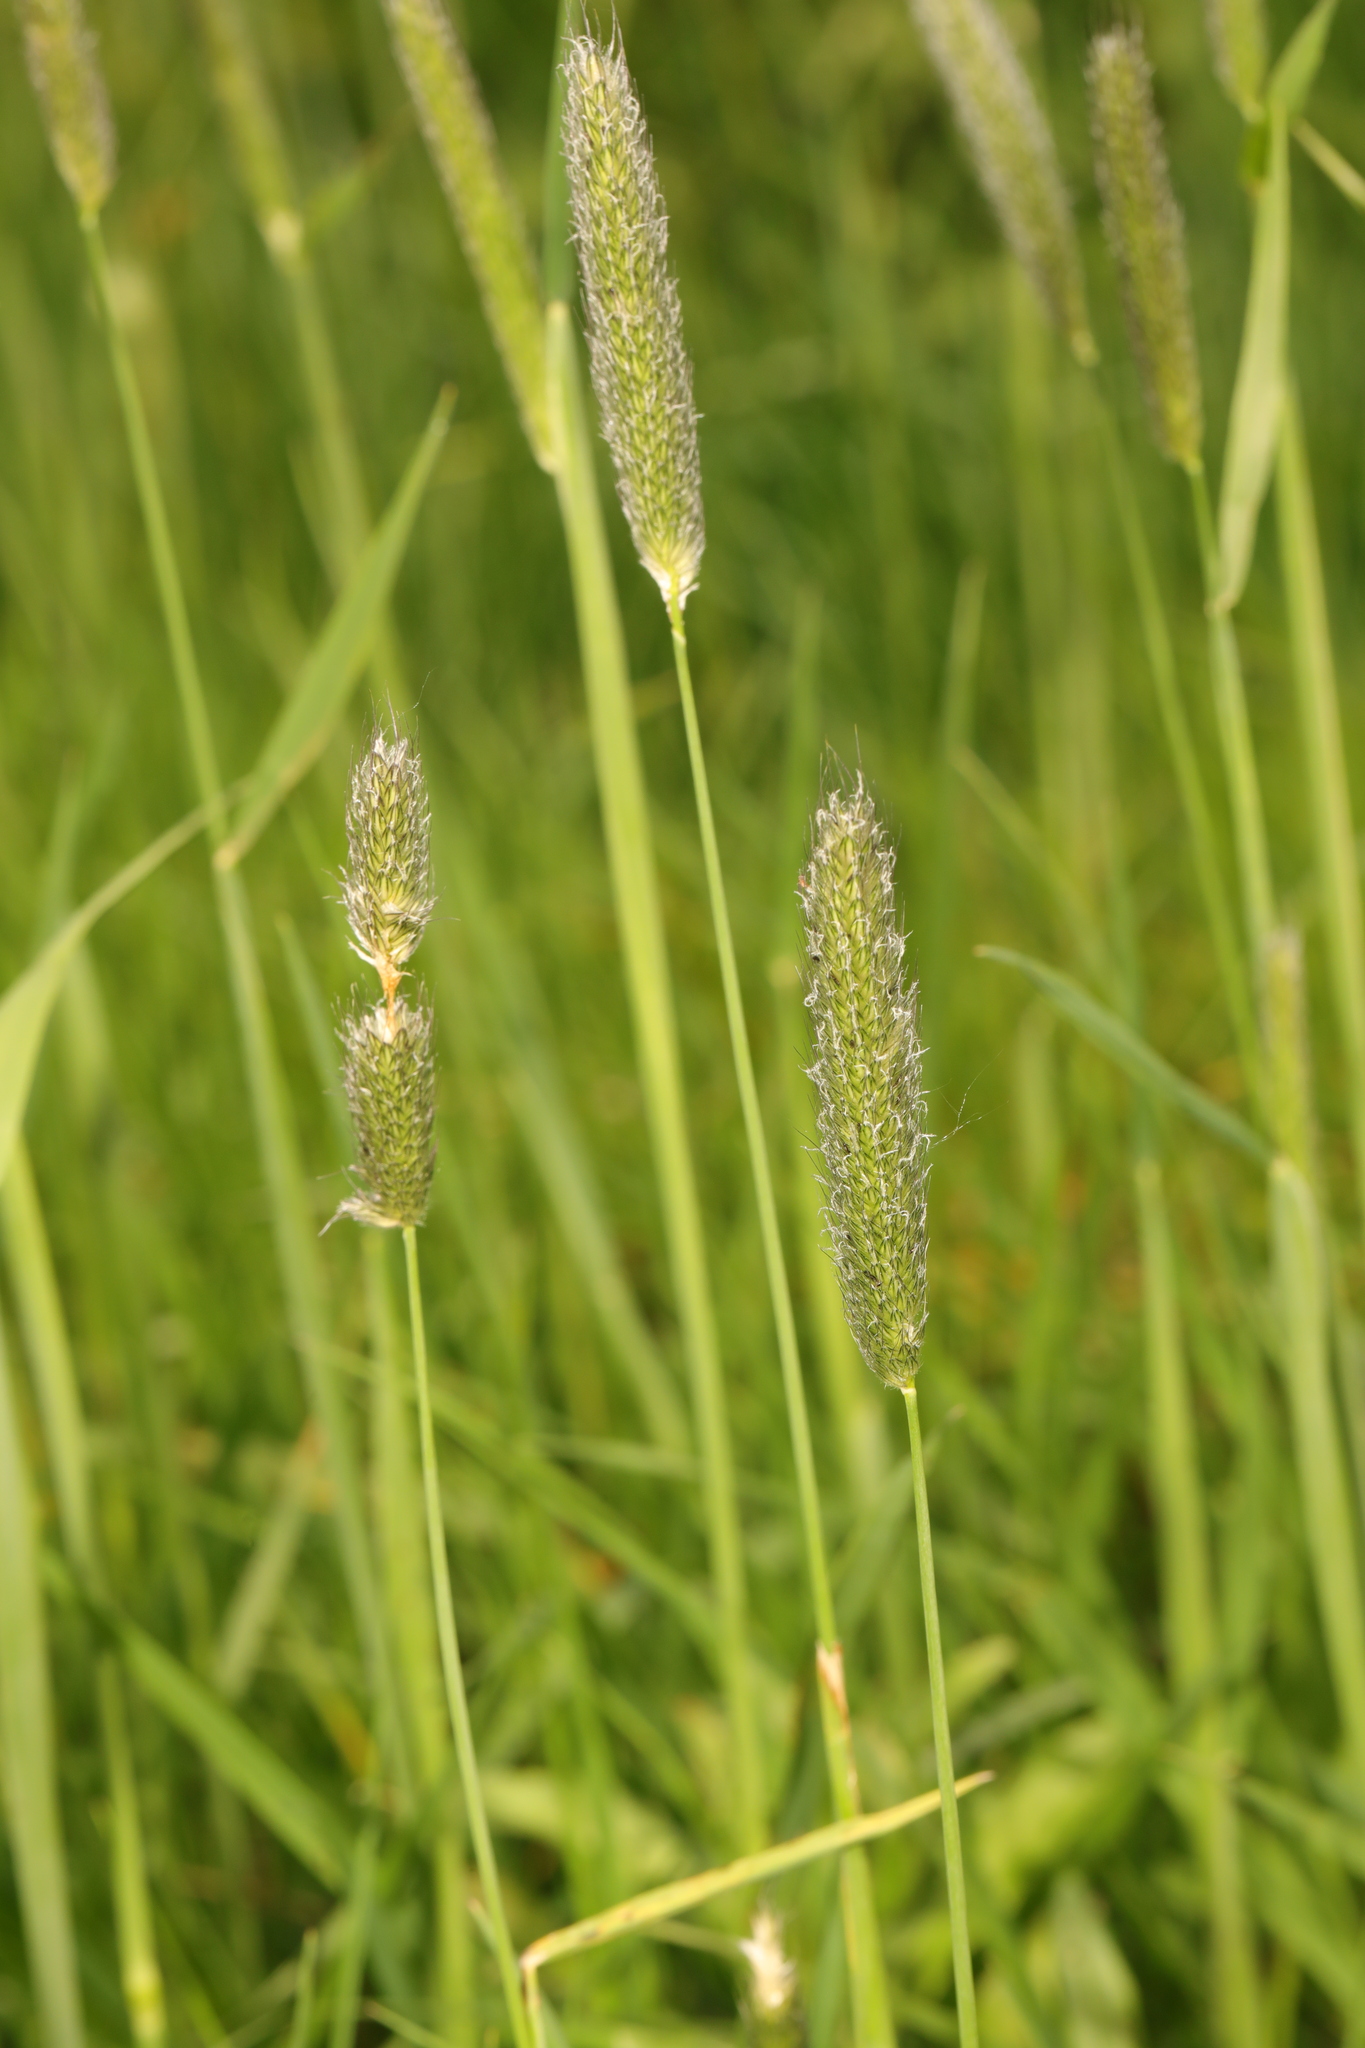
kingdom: Plantae
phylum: Tracheophyta
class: Liliopsida
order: Poales
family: Poaceae
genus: Alopecurus
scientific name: Alopecurus pratensis
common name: Meadow foxtail
